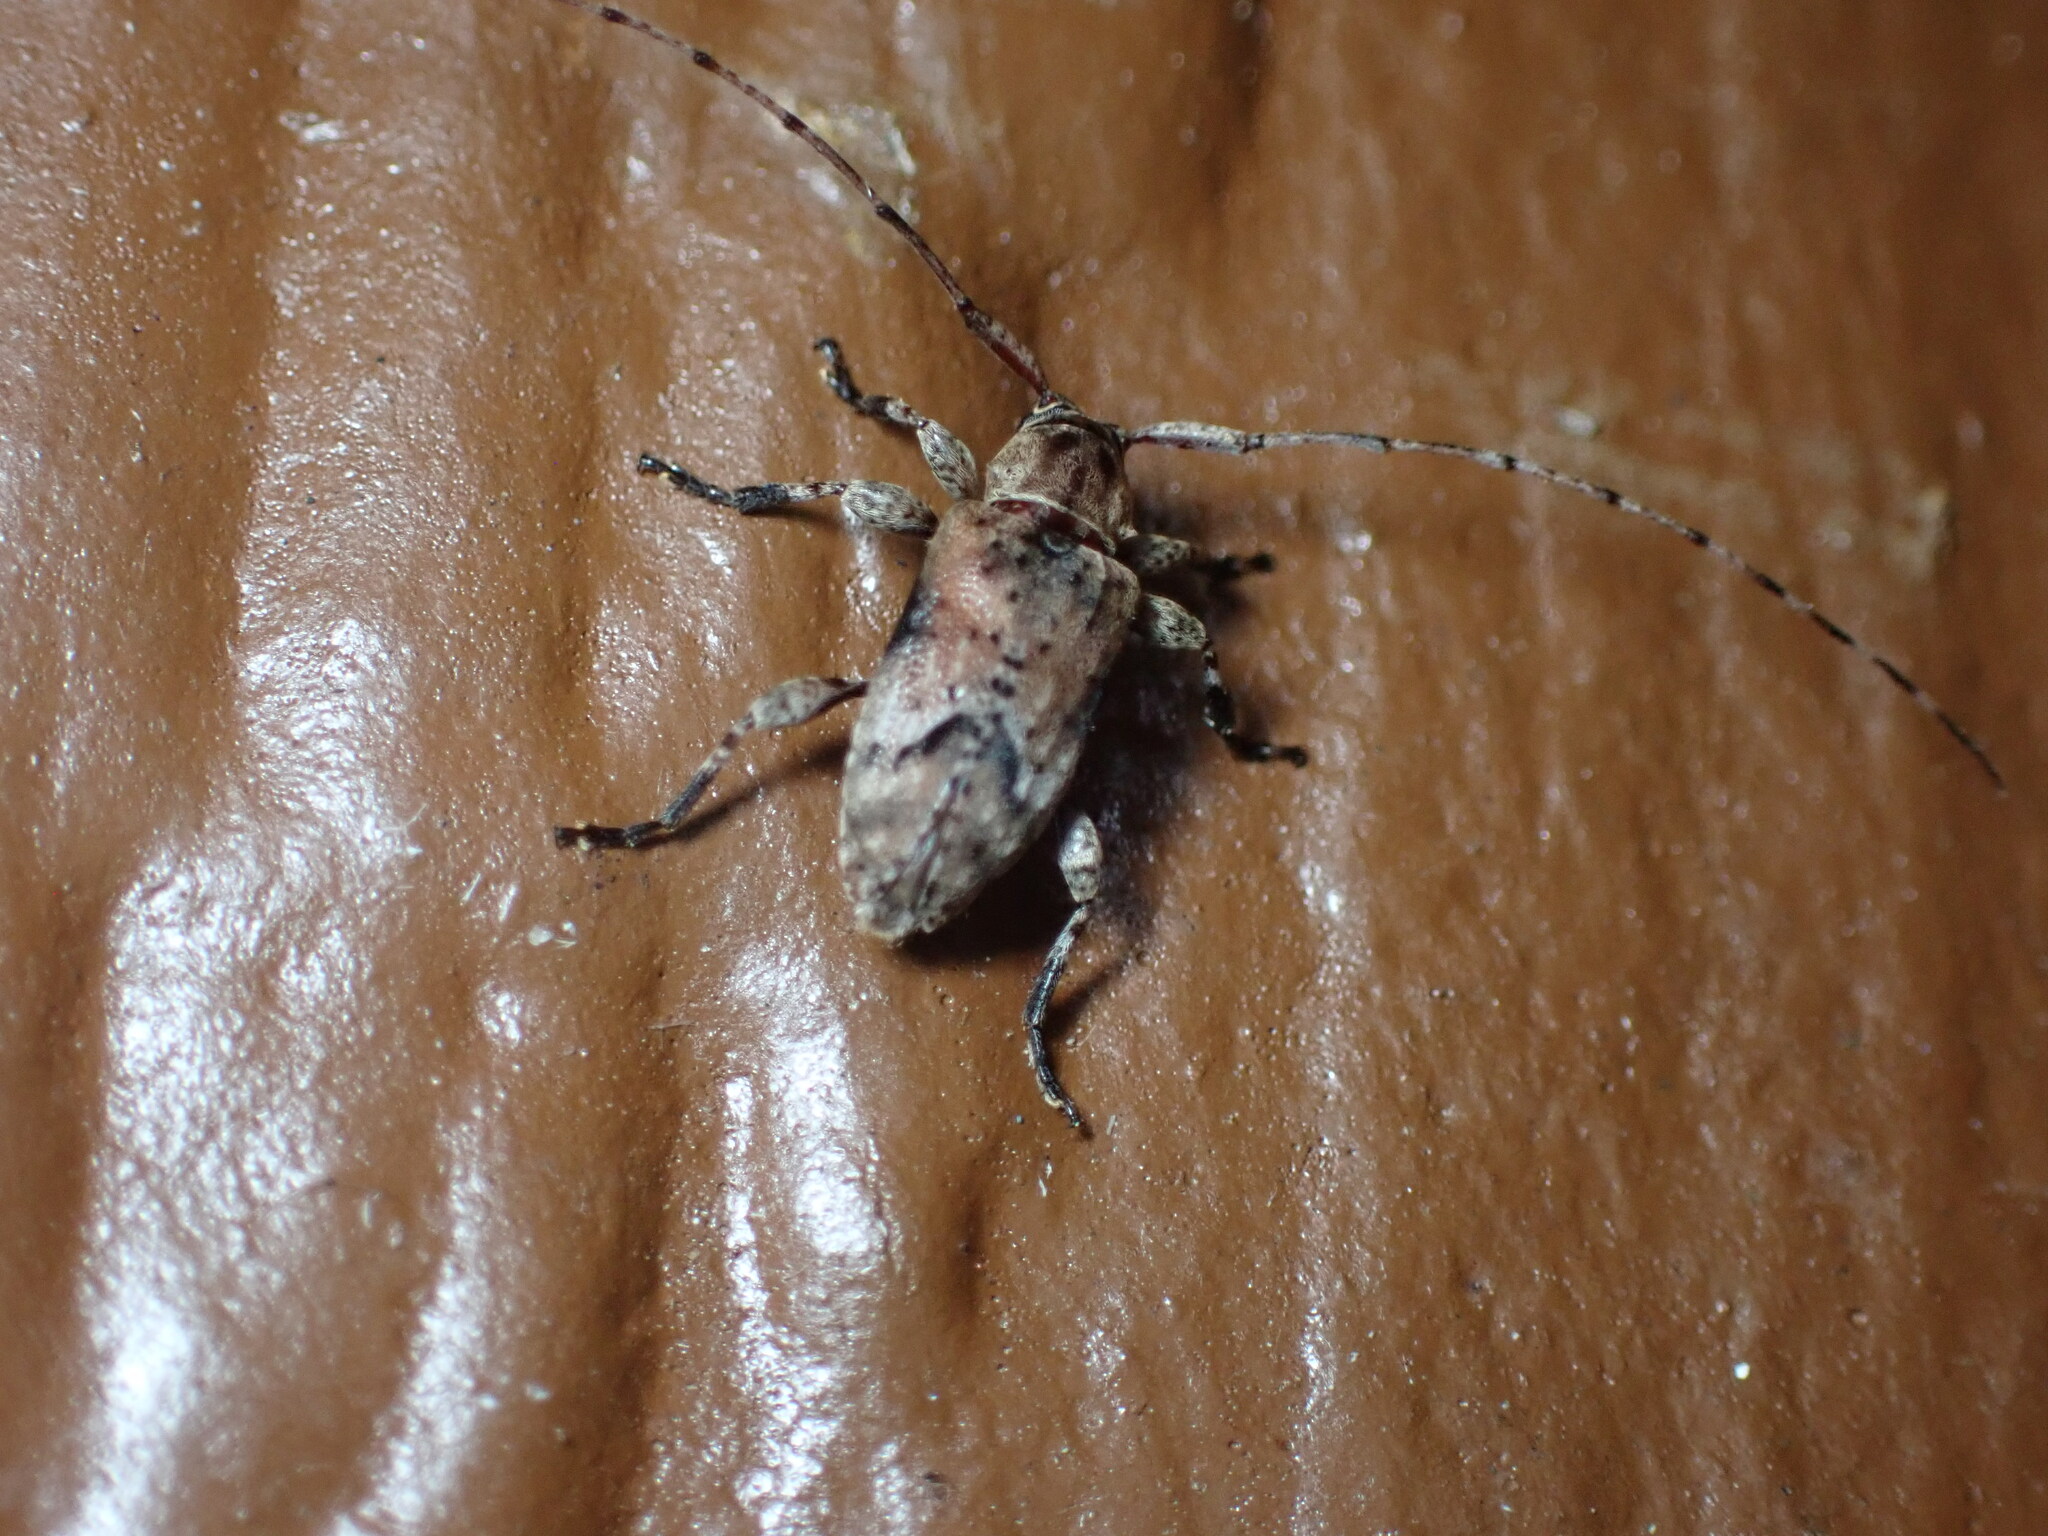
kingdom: Animalia
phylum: Arthropoda
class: Insecta
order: Coleoptera
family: Cerambycidae
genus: Sternidius
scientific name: Sternidius alpha
